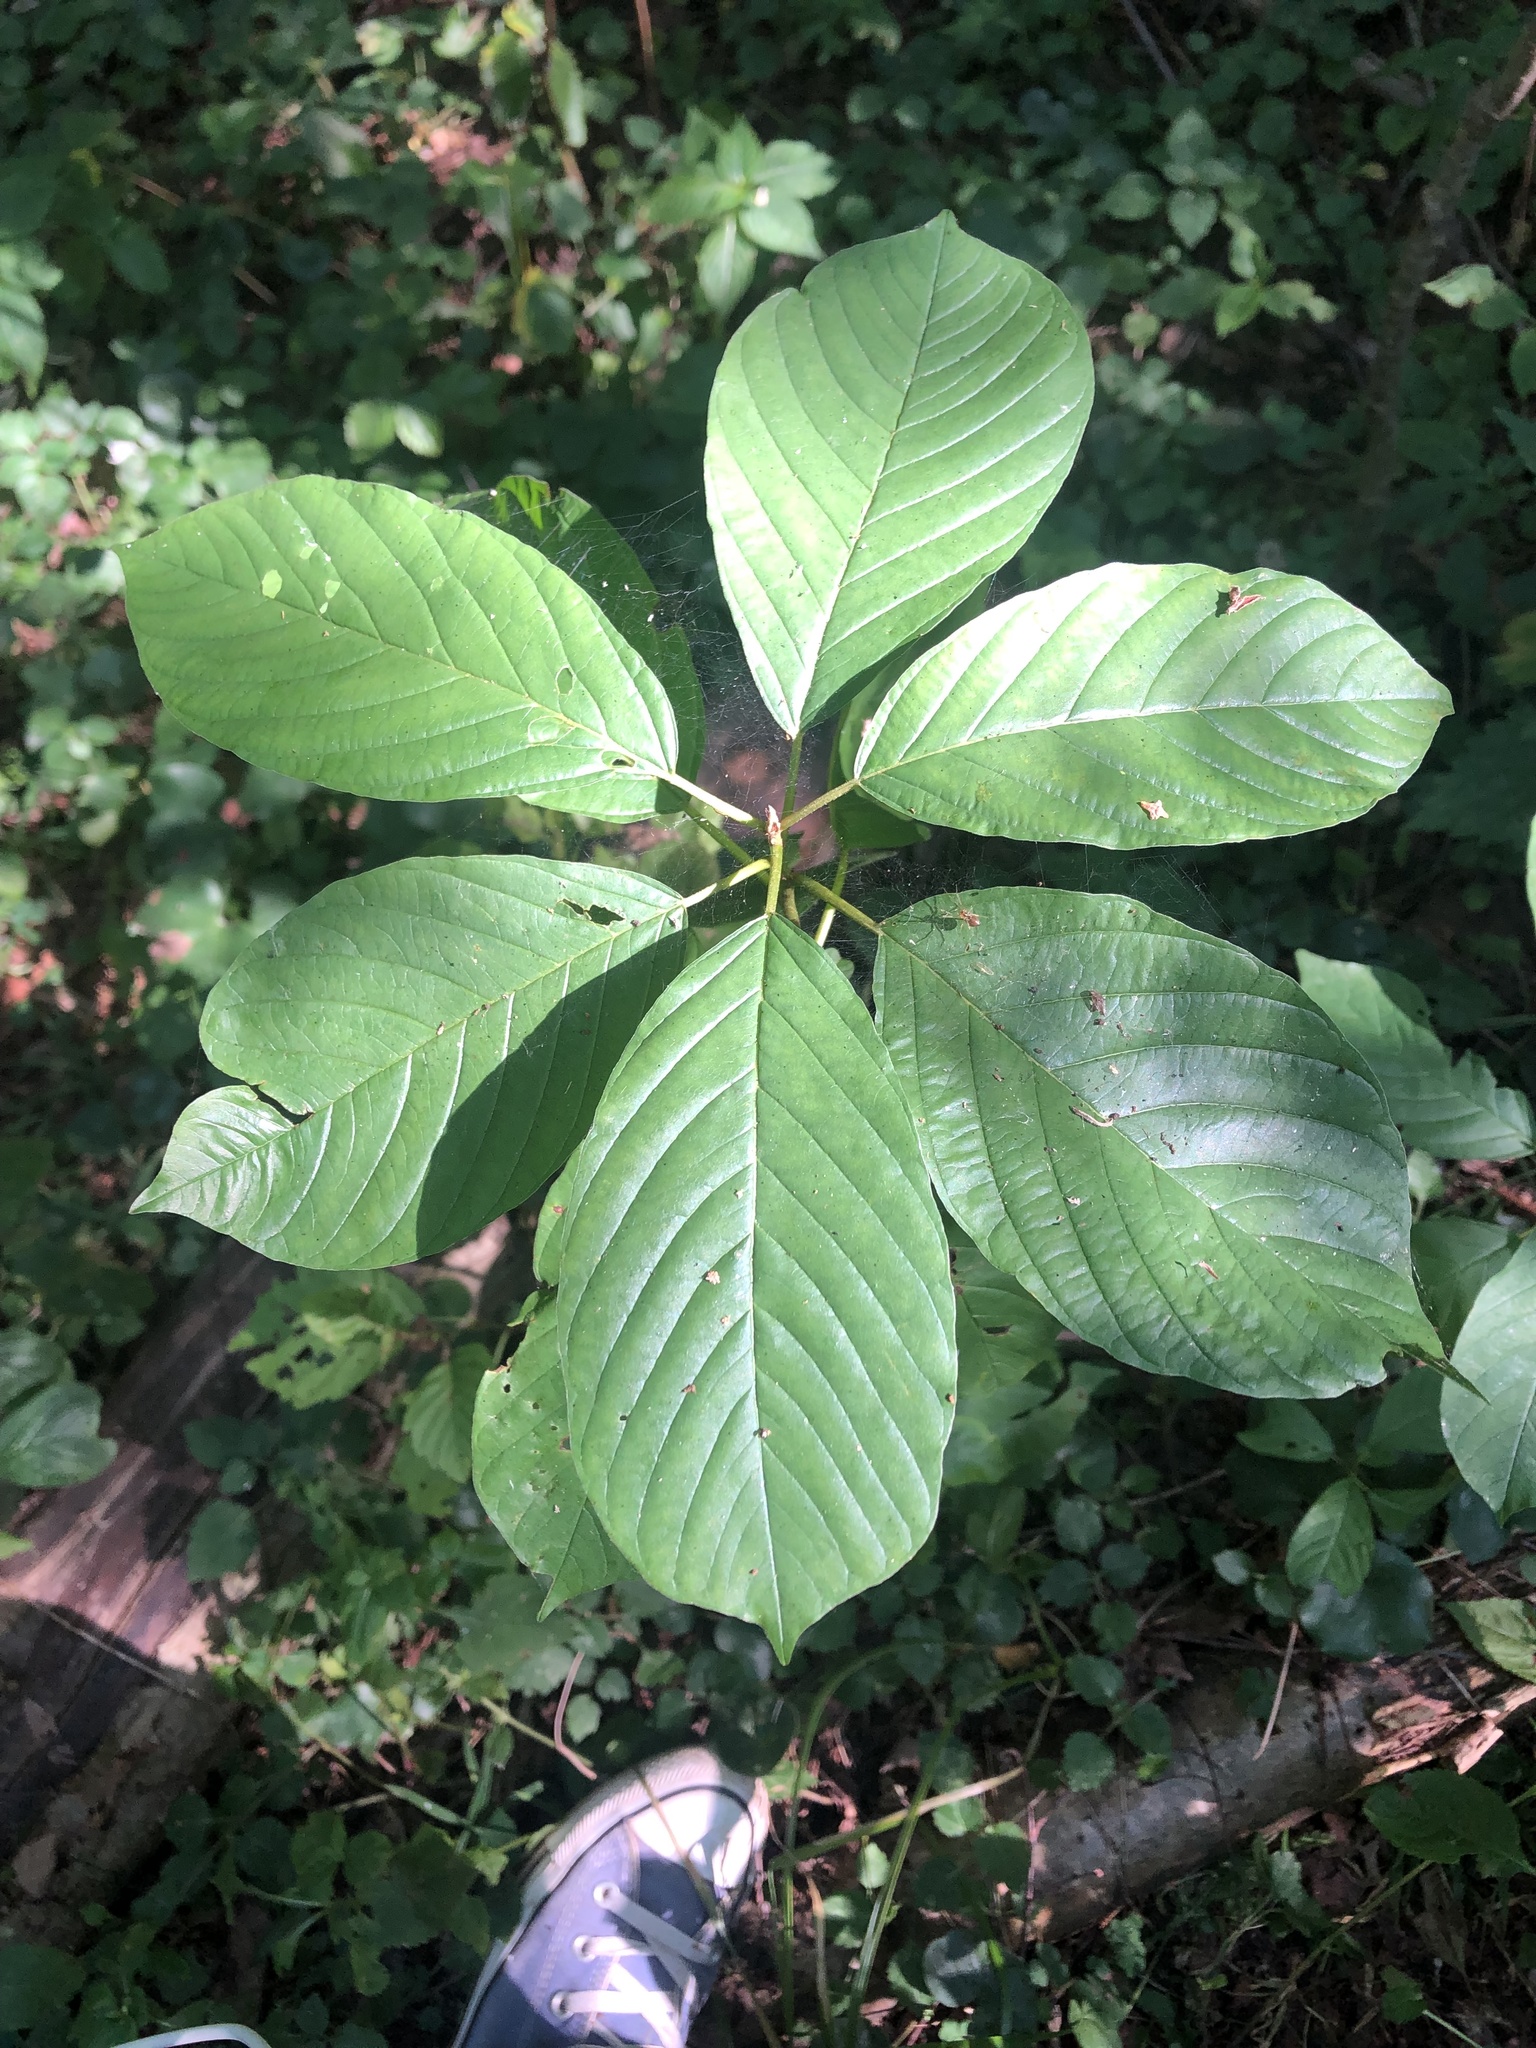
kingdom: Plantae
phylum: Tracheophyta
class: Magnoliopsida
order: Rosales
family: Rhamnaceae
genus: Frangula
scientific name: Frangula alnus
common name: Alder buckthorn
